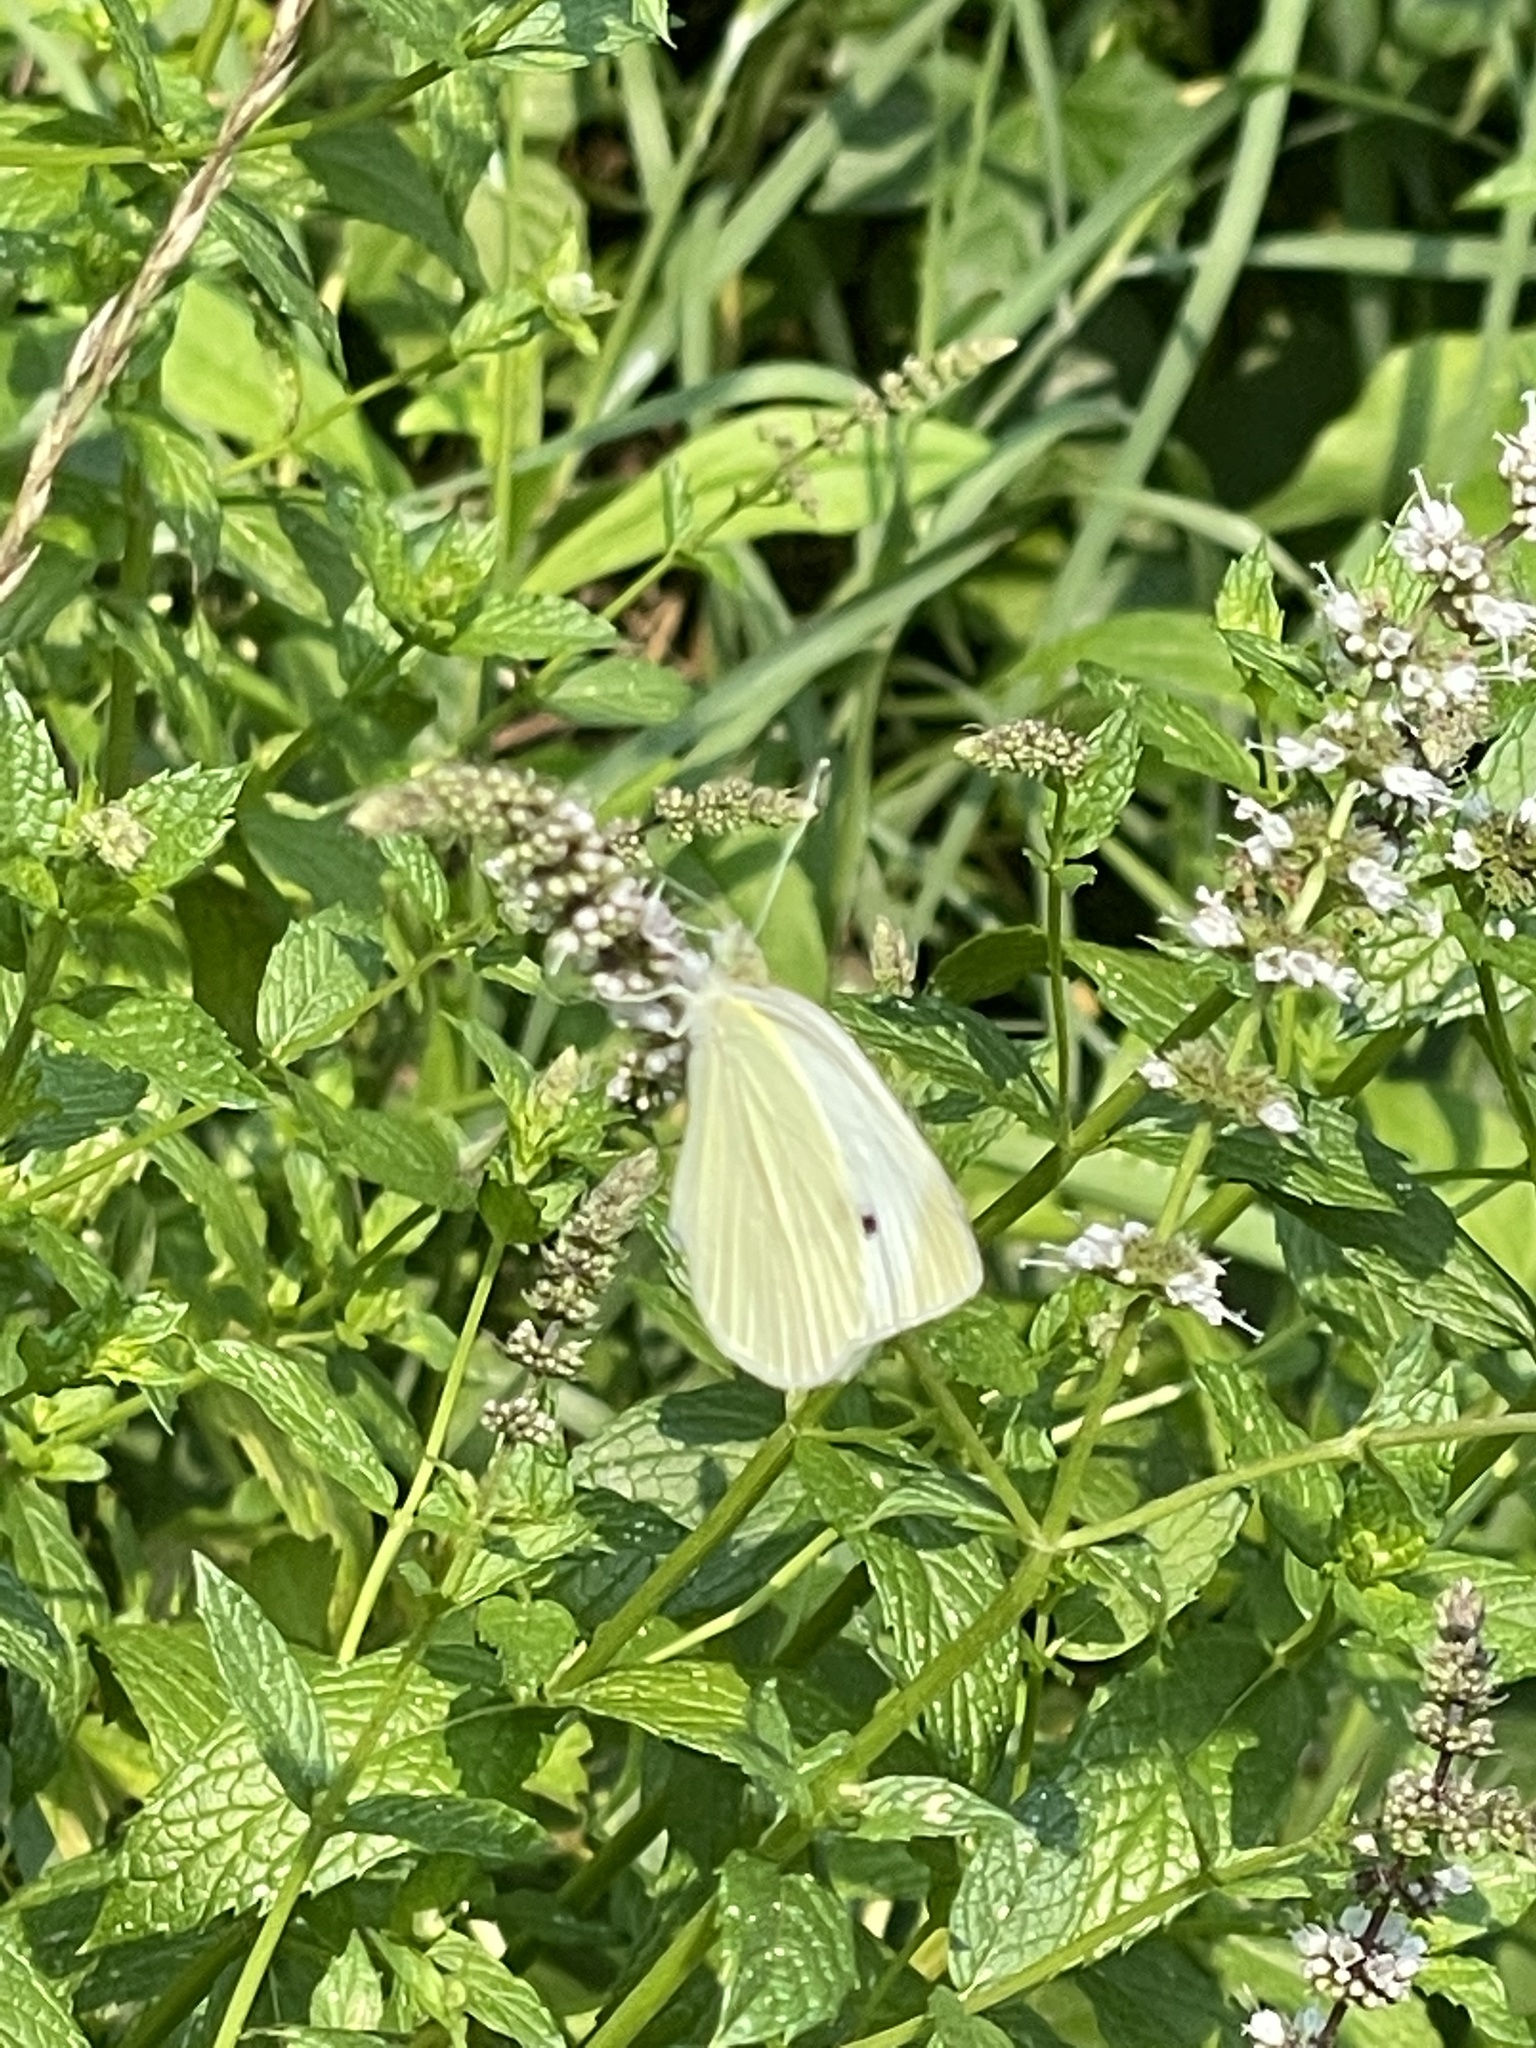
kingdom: Animalia
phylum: Arthropoda
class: Insecta
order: Lepidoptera
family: Pieridae
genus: Pieris
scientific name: Pieris rapae
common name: Small white
